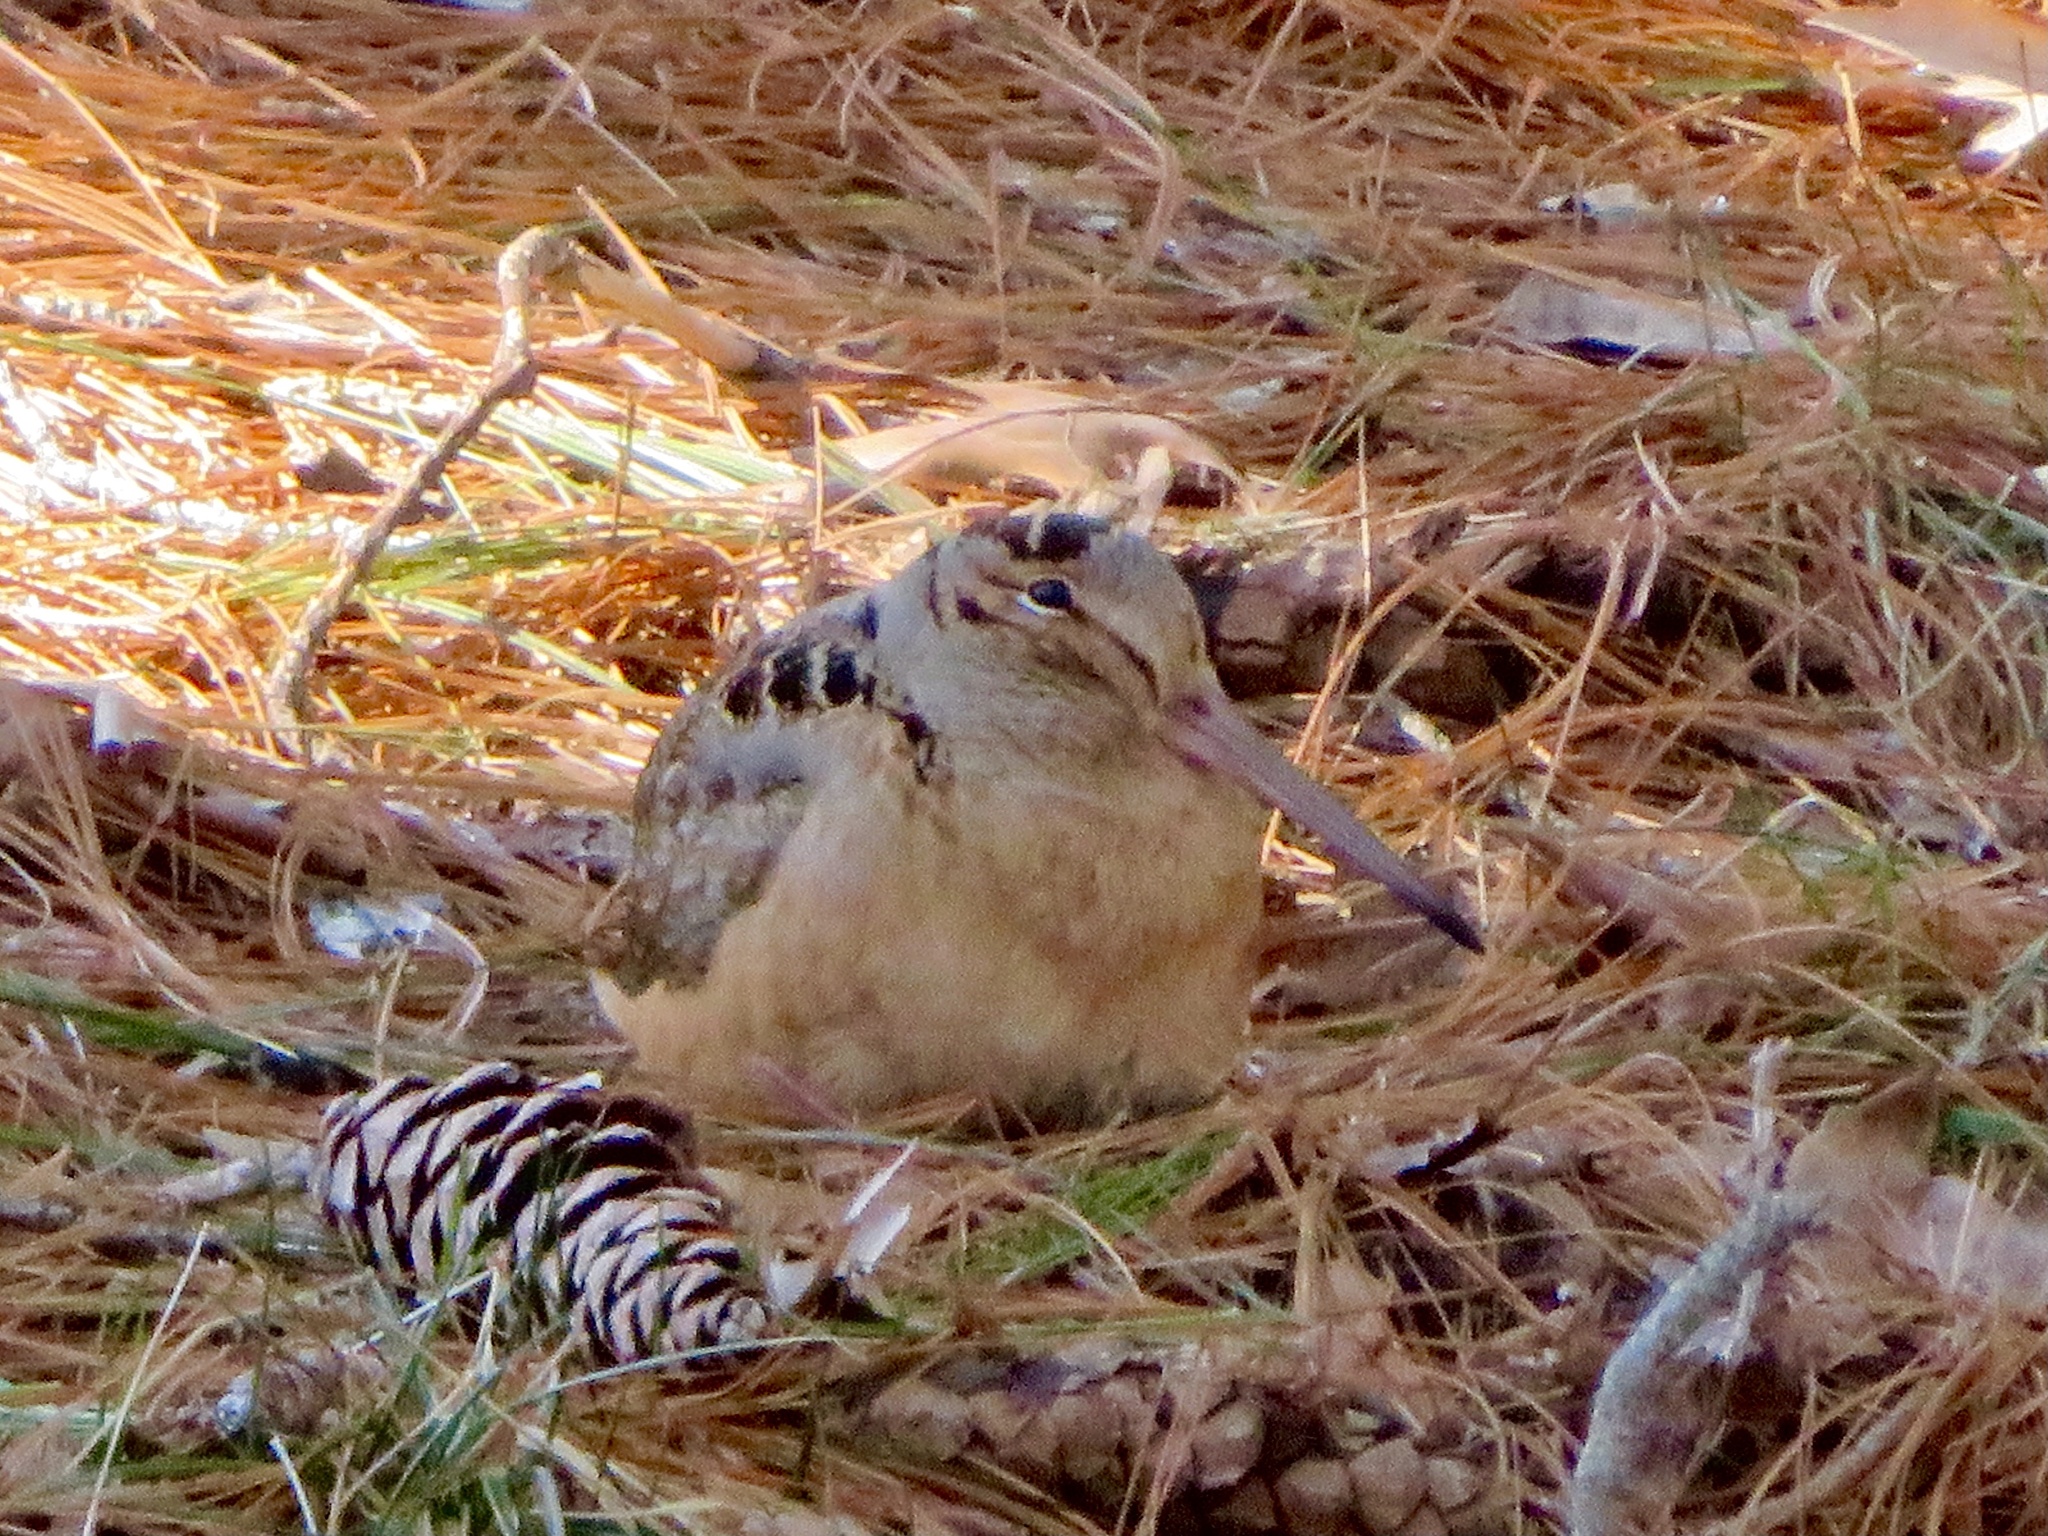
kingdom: Animalia
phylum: Chordata
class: Aves
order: Charadriiformes
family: Scolopacidae
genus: Scolopax
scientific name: Scolopax minor
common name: American woodcock
